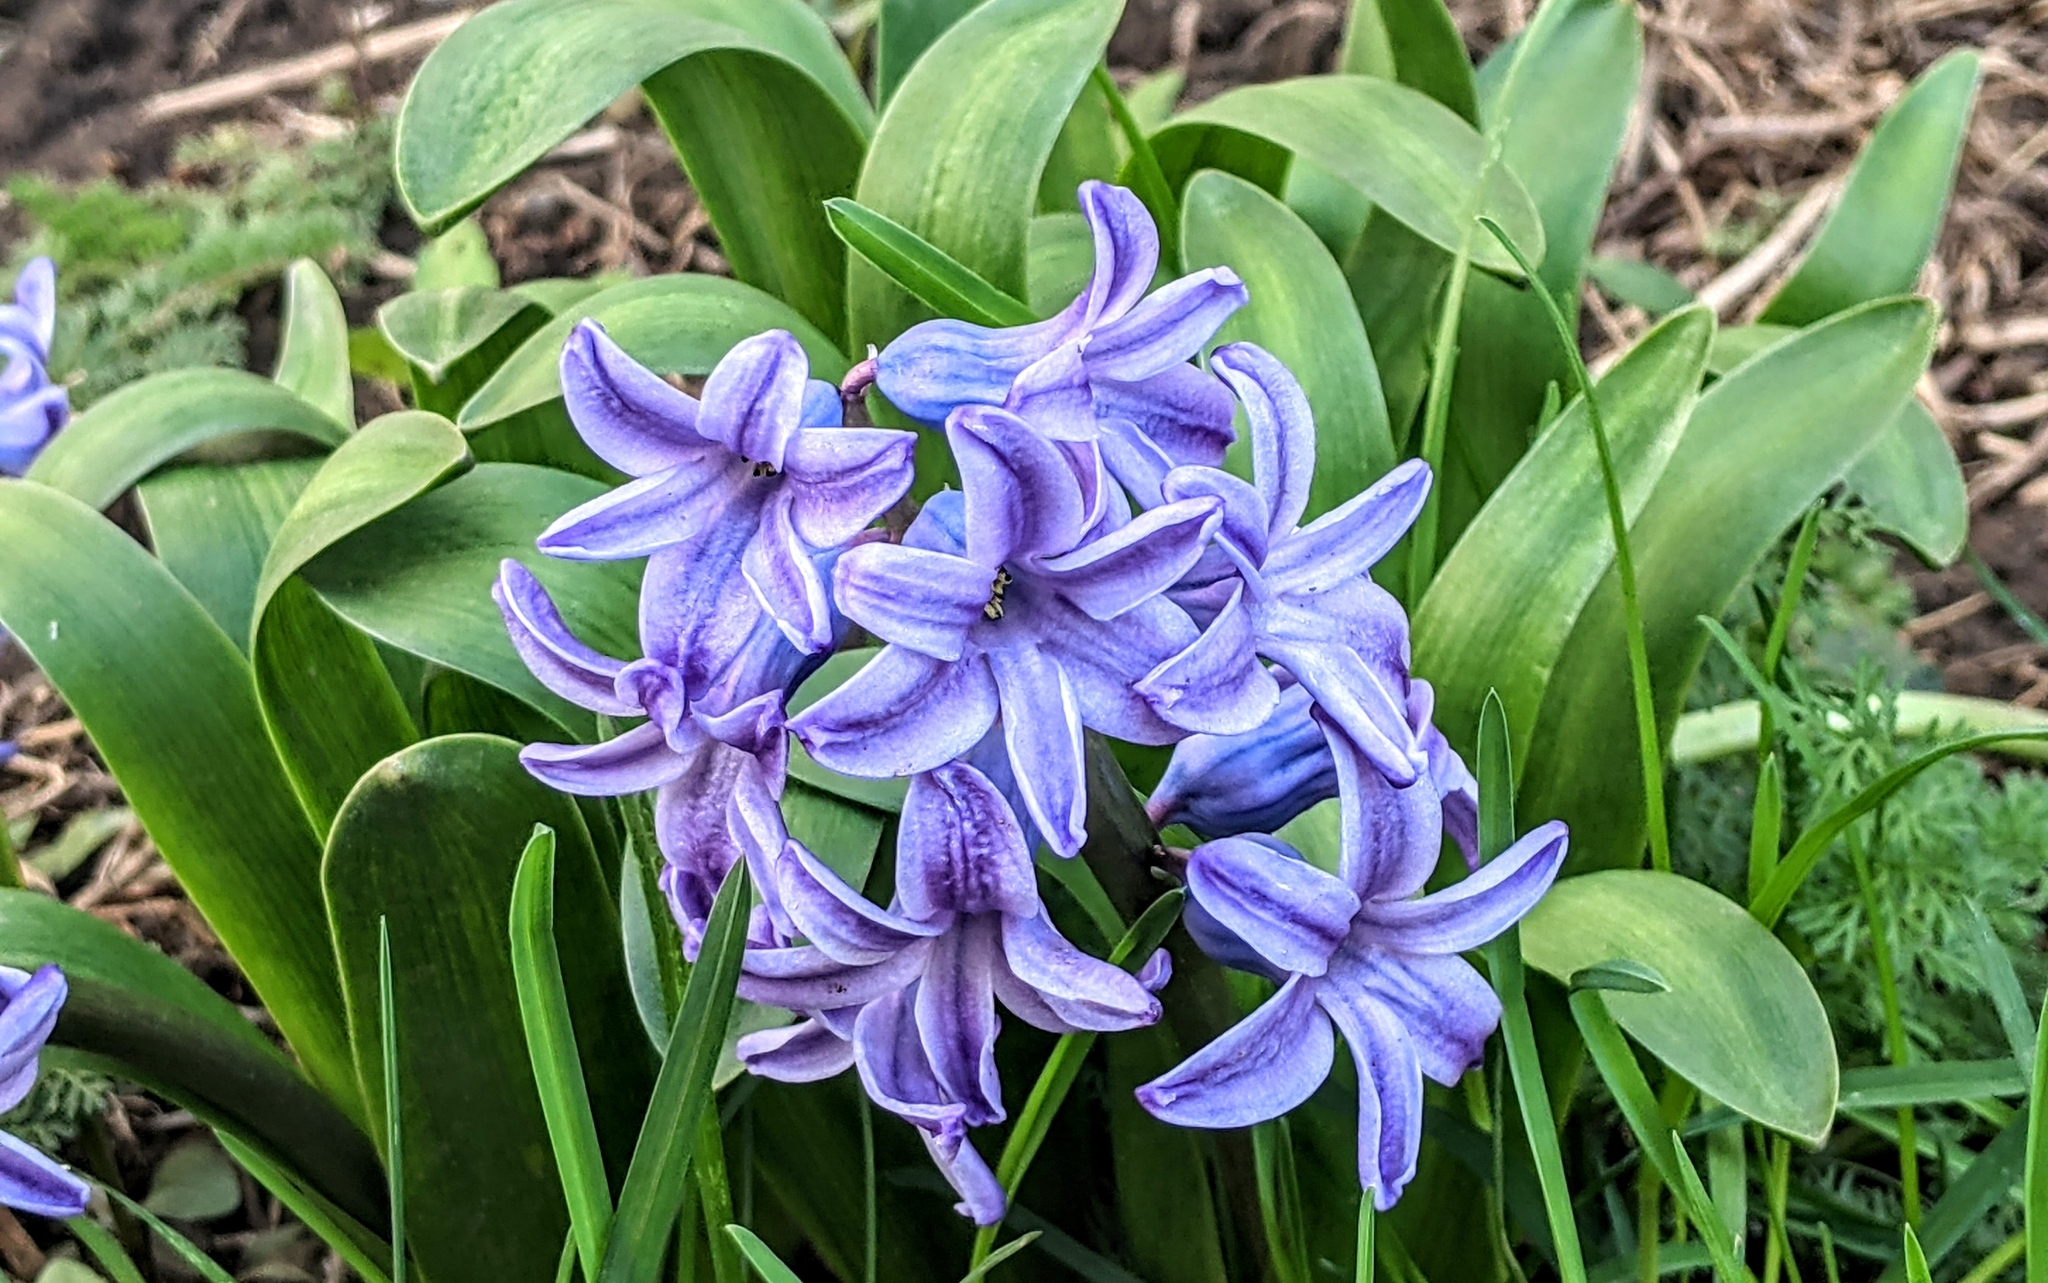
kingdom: Plantae
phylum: Tracheophyta
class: Liliopsida
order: Asparagales
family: Asparagaceae
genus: Hyacinthus
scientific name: Hyacinthus orientalis
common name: Hyacinth
